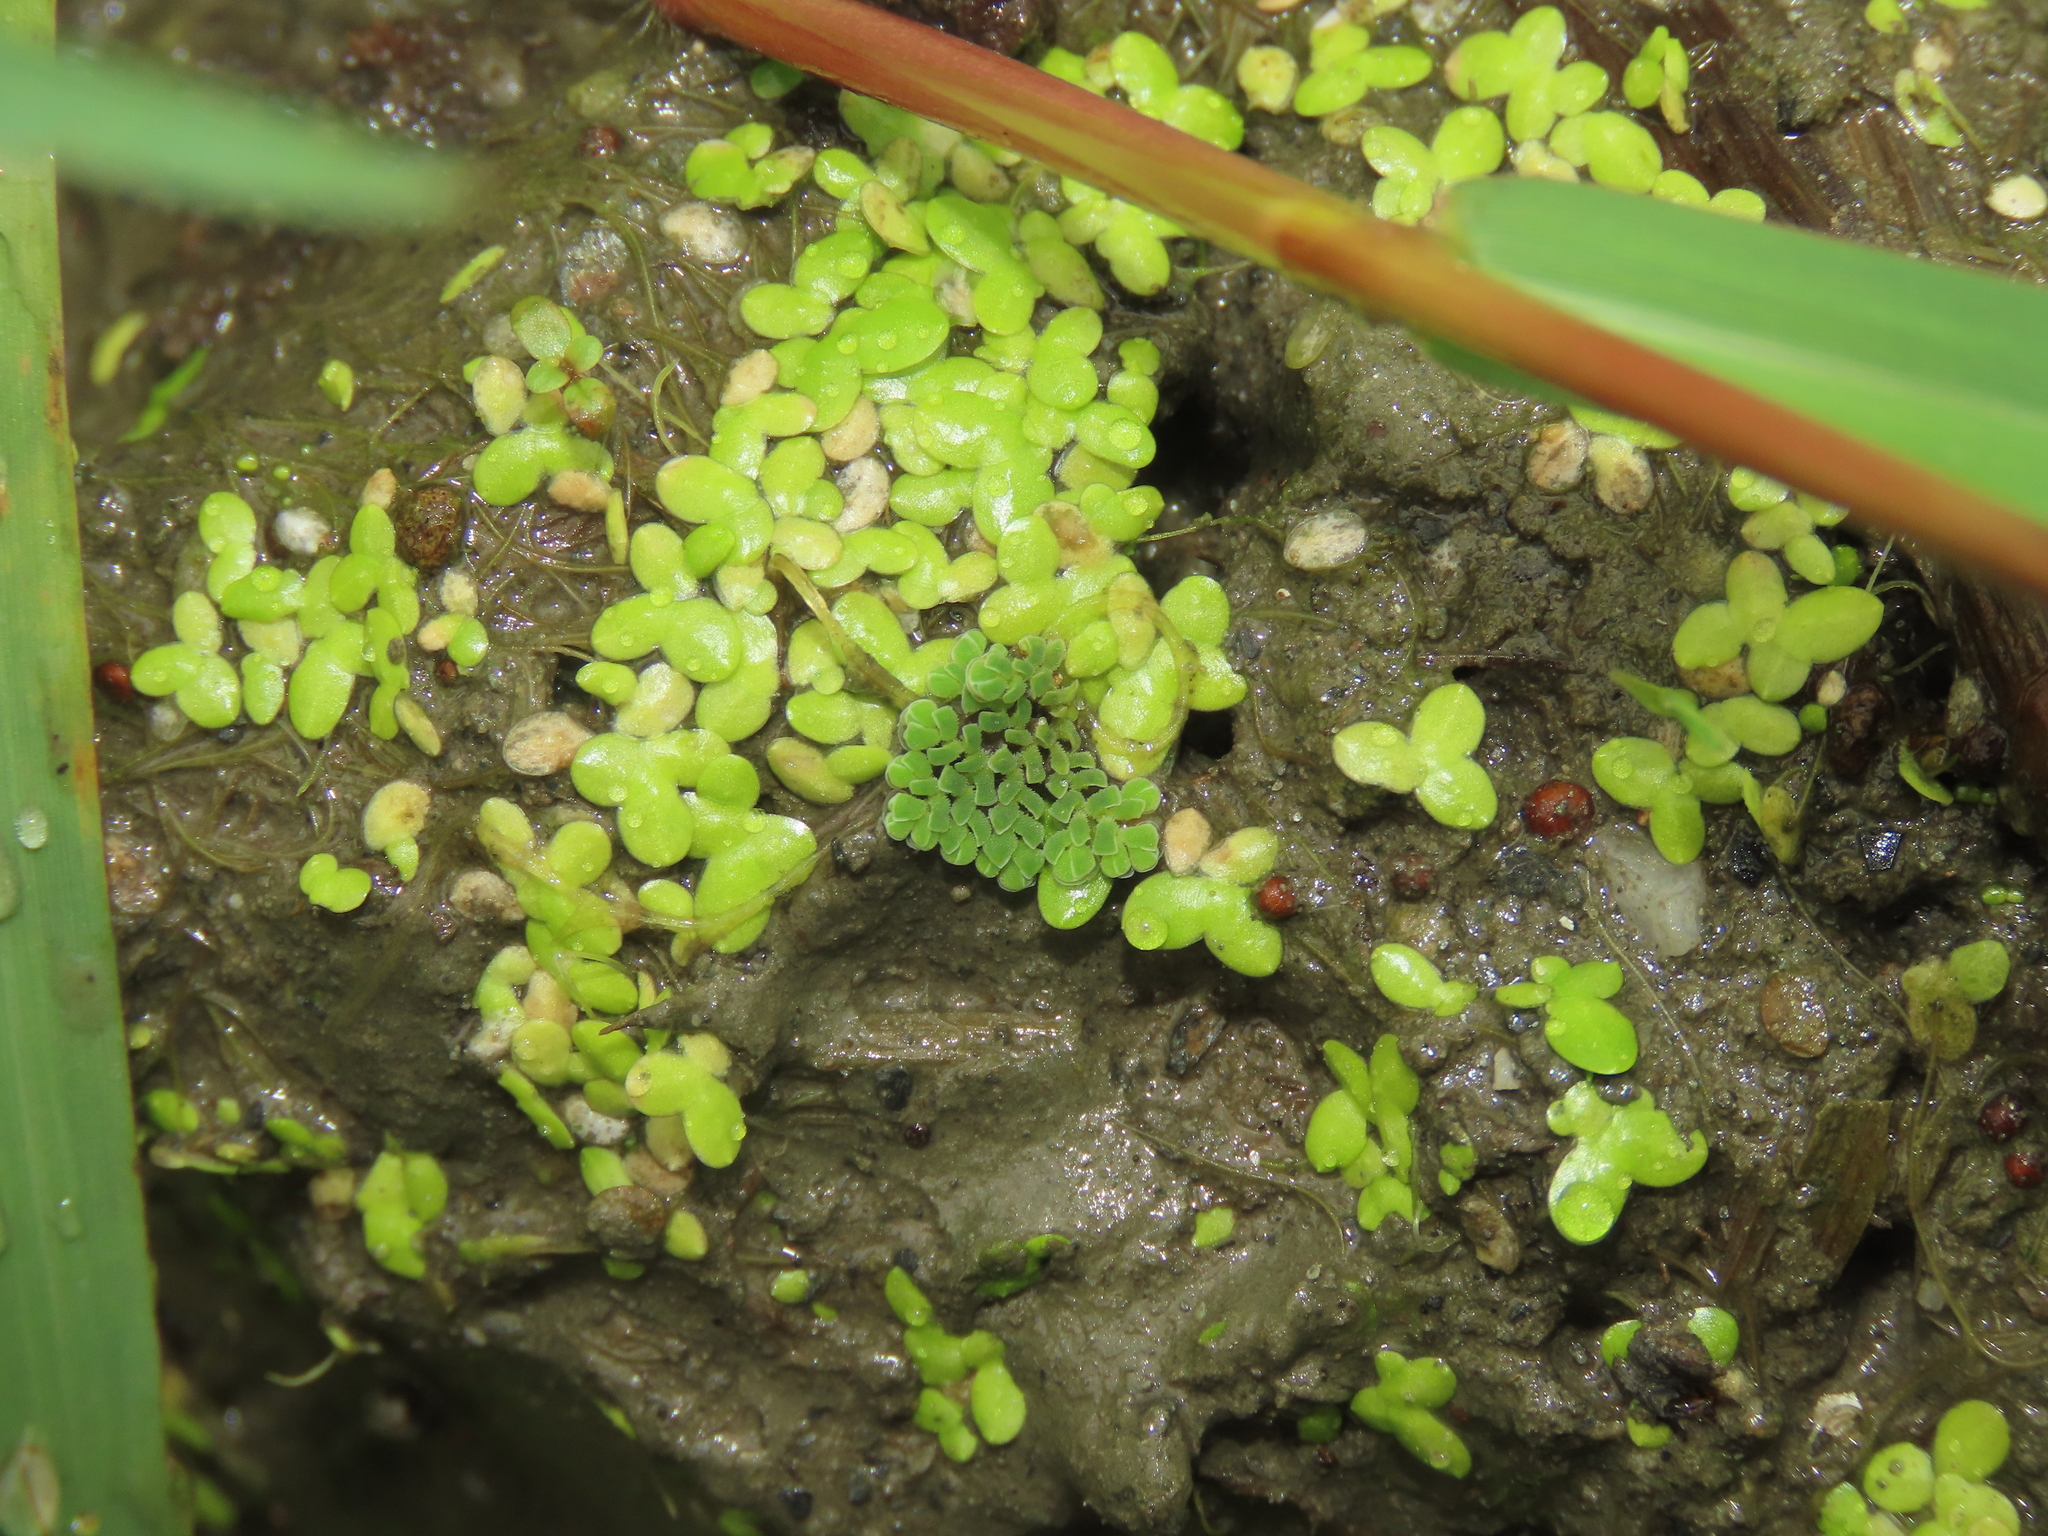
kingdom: Plantae
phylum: Tracheophyta
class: Liliopsida
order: Alismatales
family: Araceae
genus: Lemna
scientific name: Lemna aequinoctialis
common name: Duckweed
